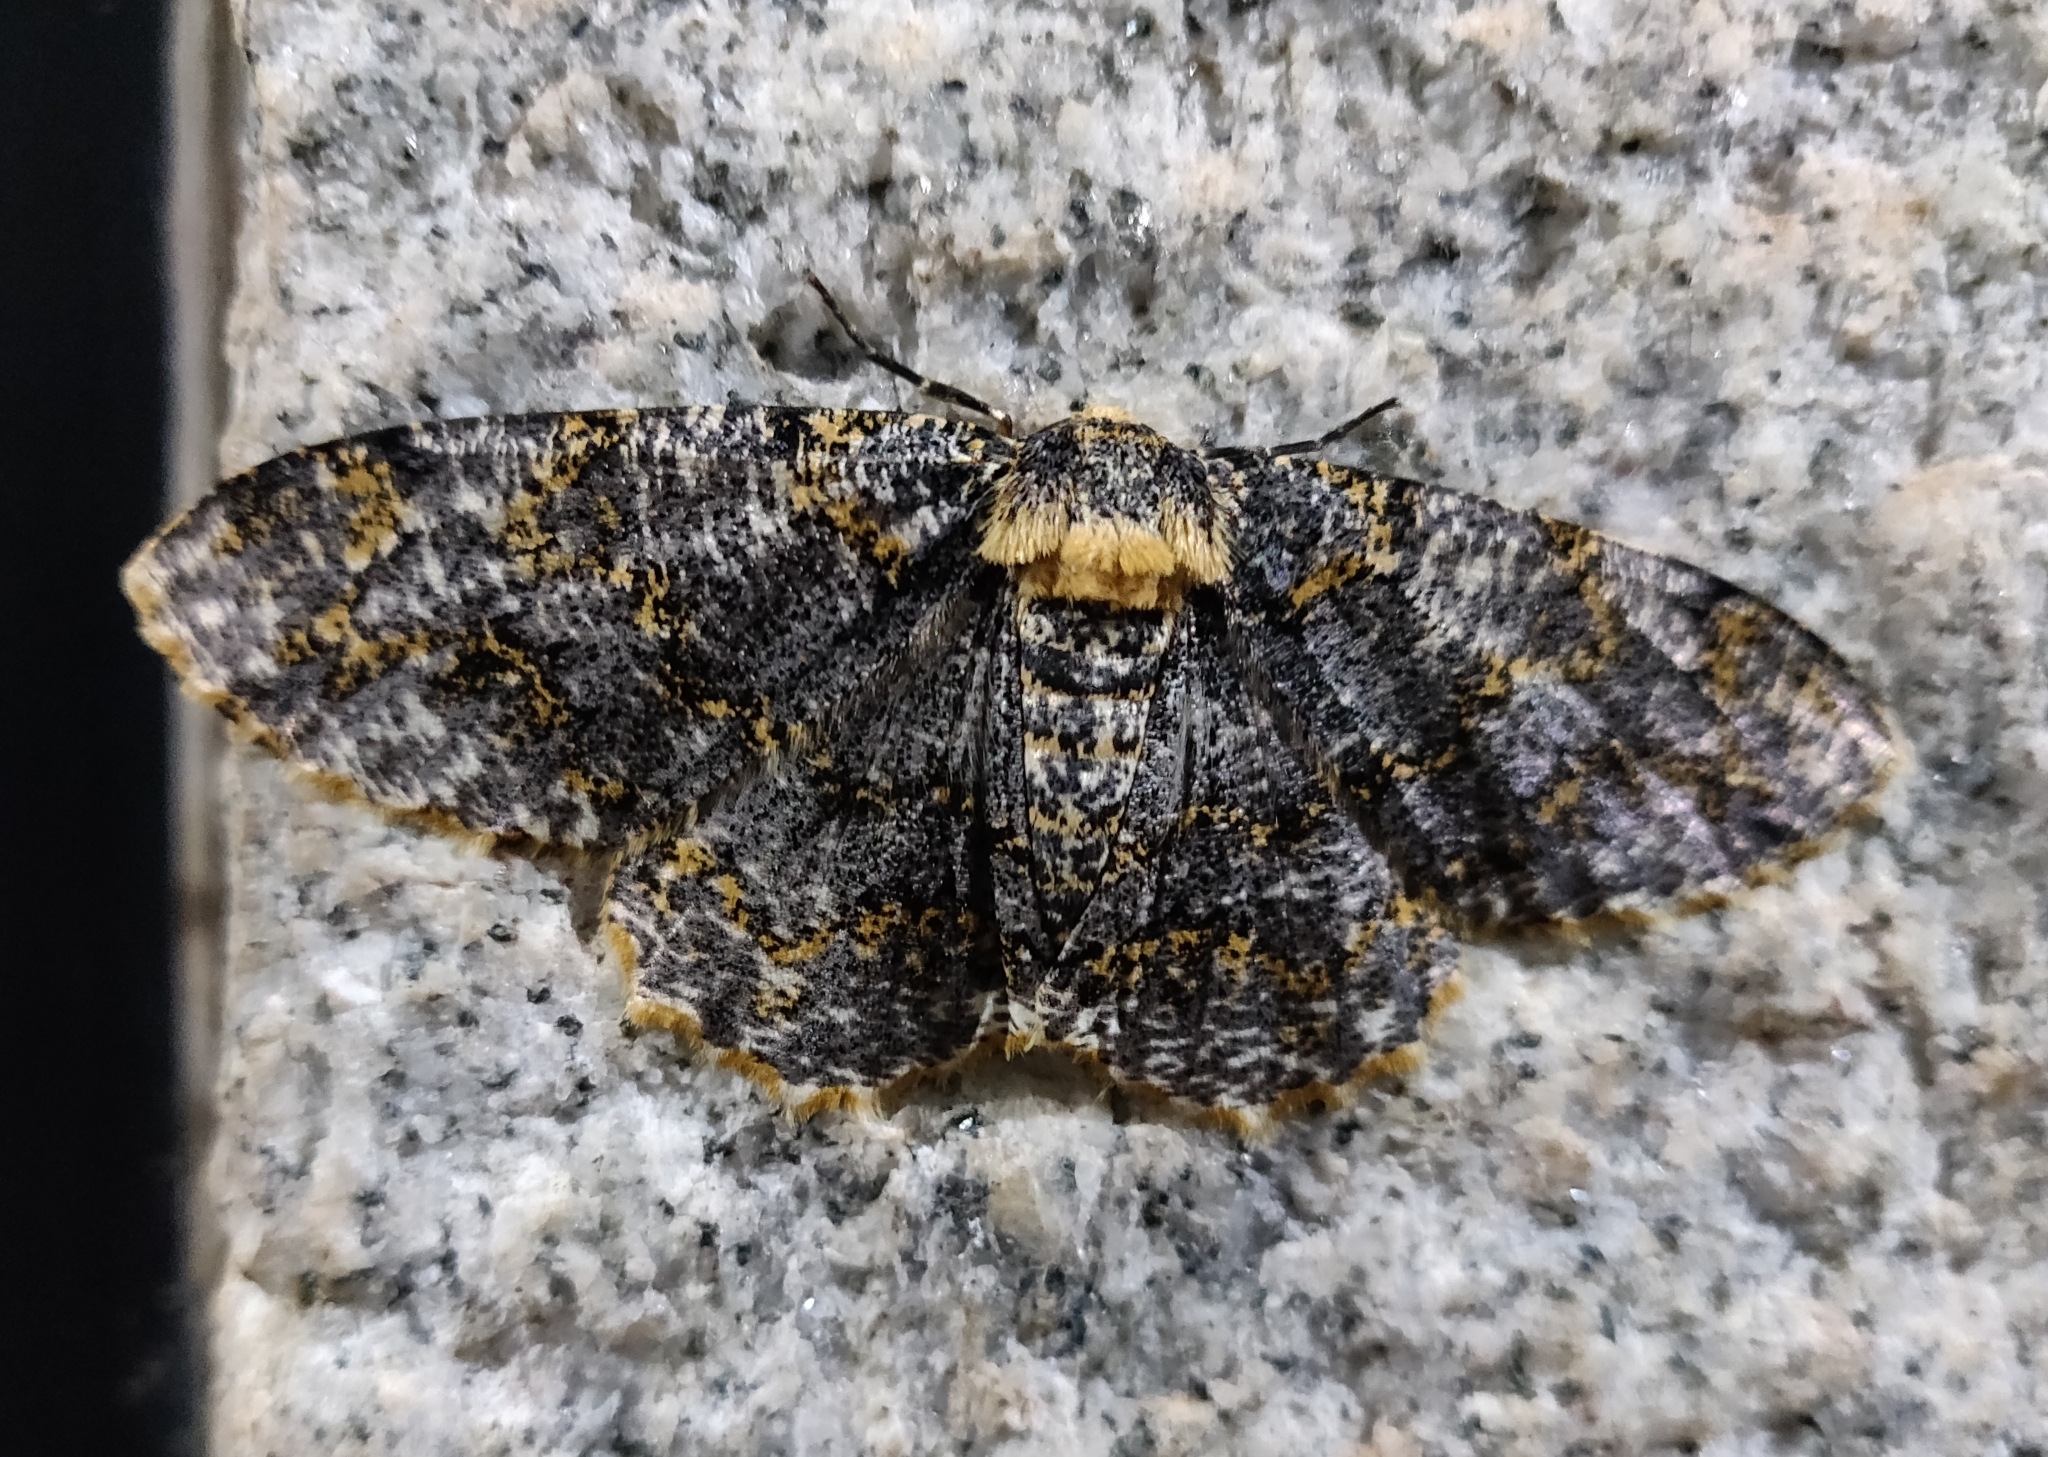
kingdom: Animalia
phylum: Arthropoda
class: Insecta
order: Lepidoptera
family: Geometridae
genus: Biston
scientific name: Biston suppressaria
